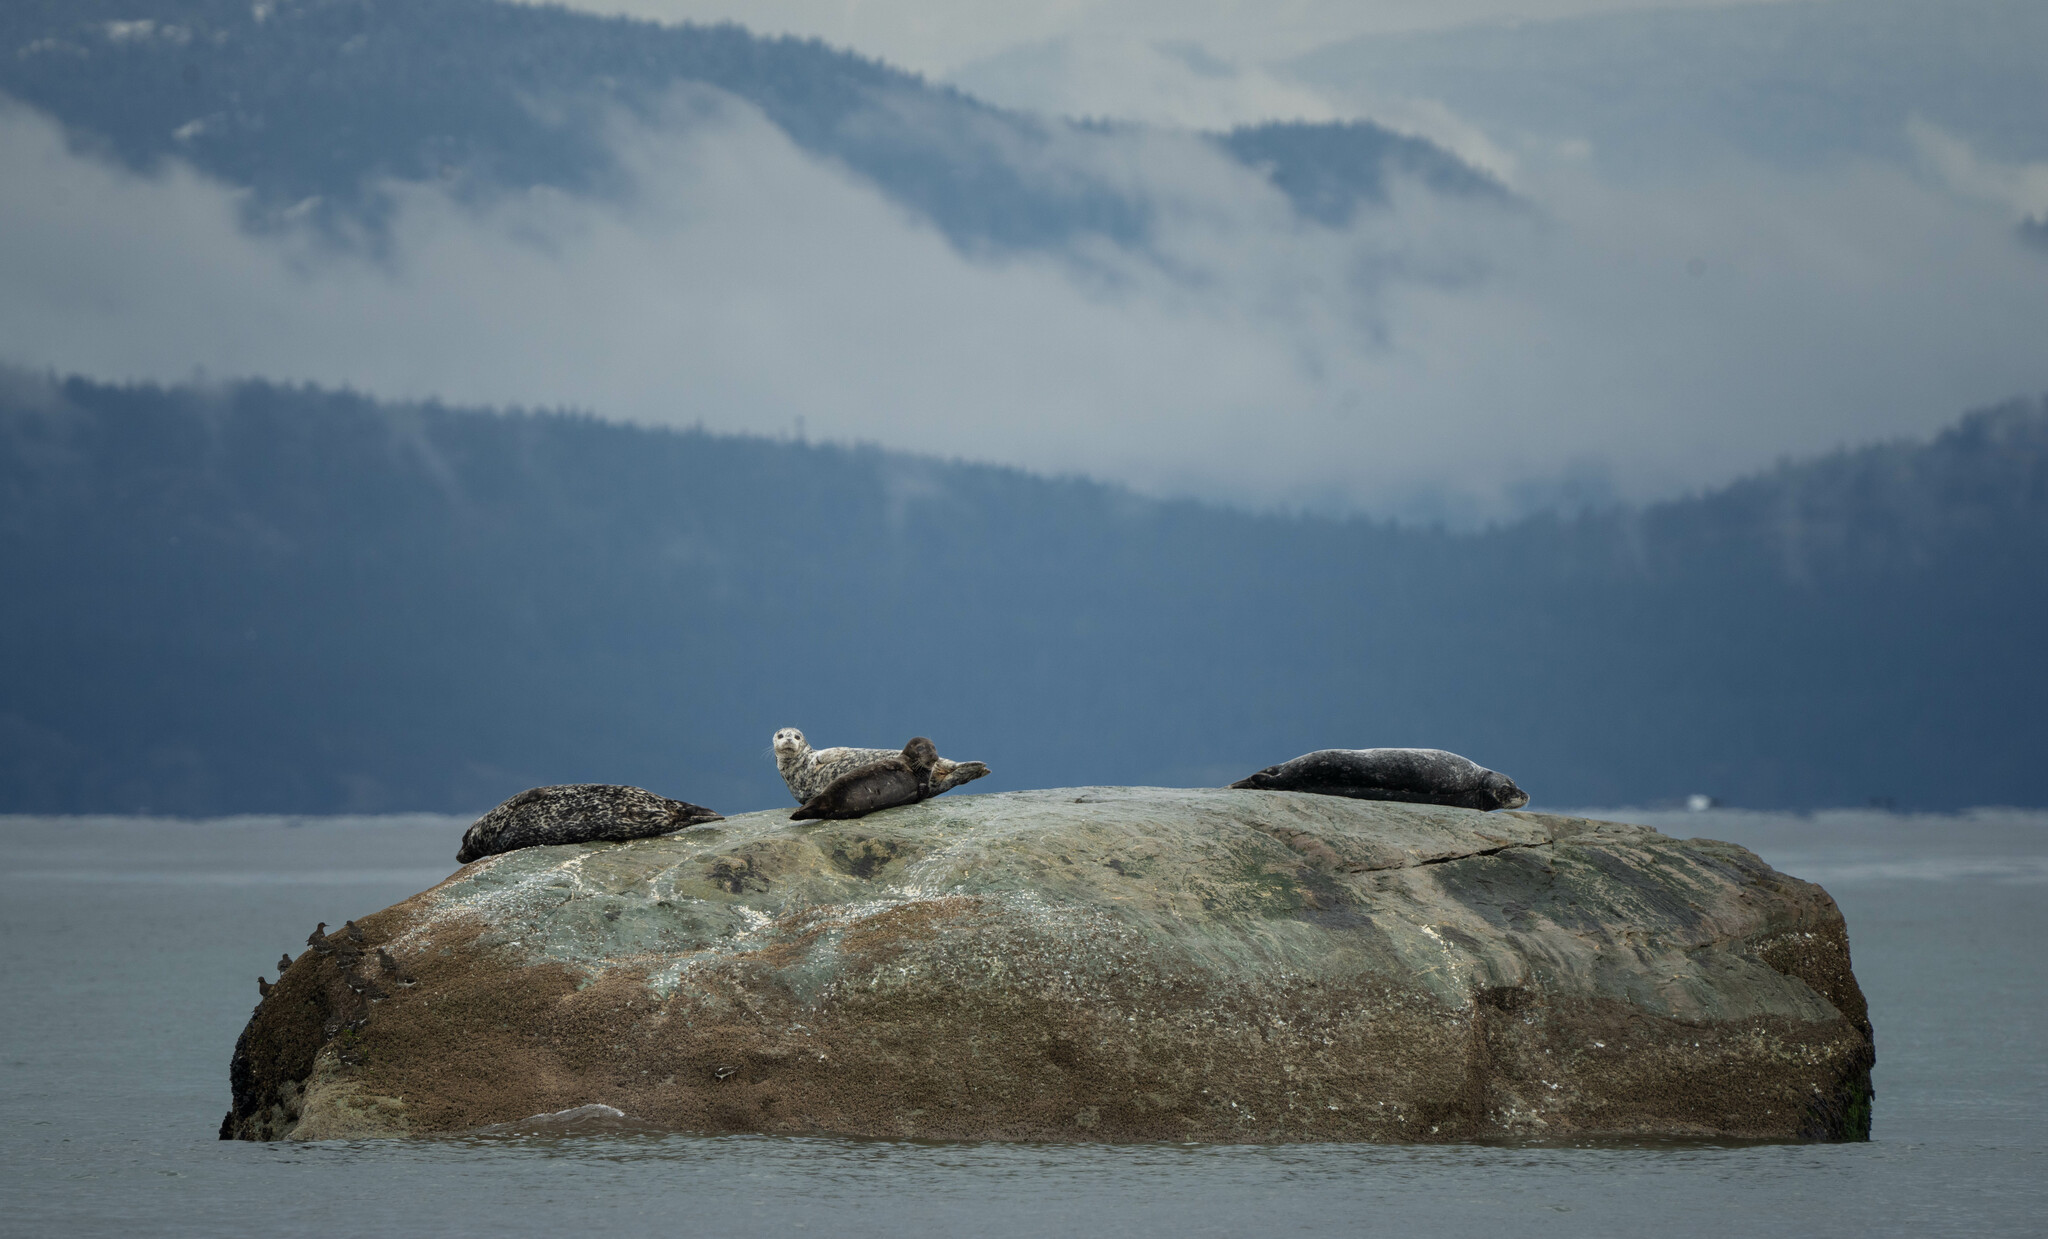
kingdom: Animalia
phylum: Chordata
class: Mammalia
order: Carnivora
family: Phocidae
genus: Phoca
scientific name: Phoca vitulina
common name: Harbor seal
